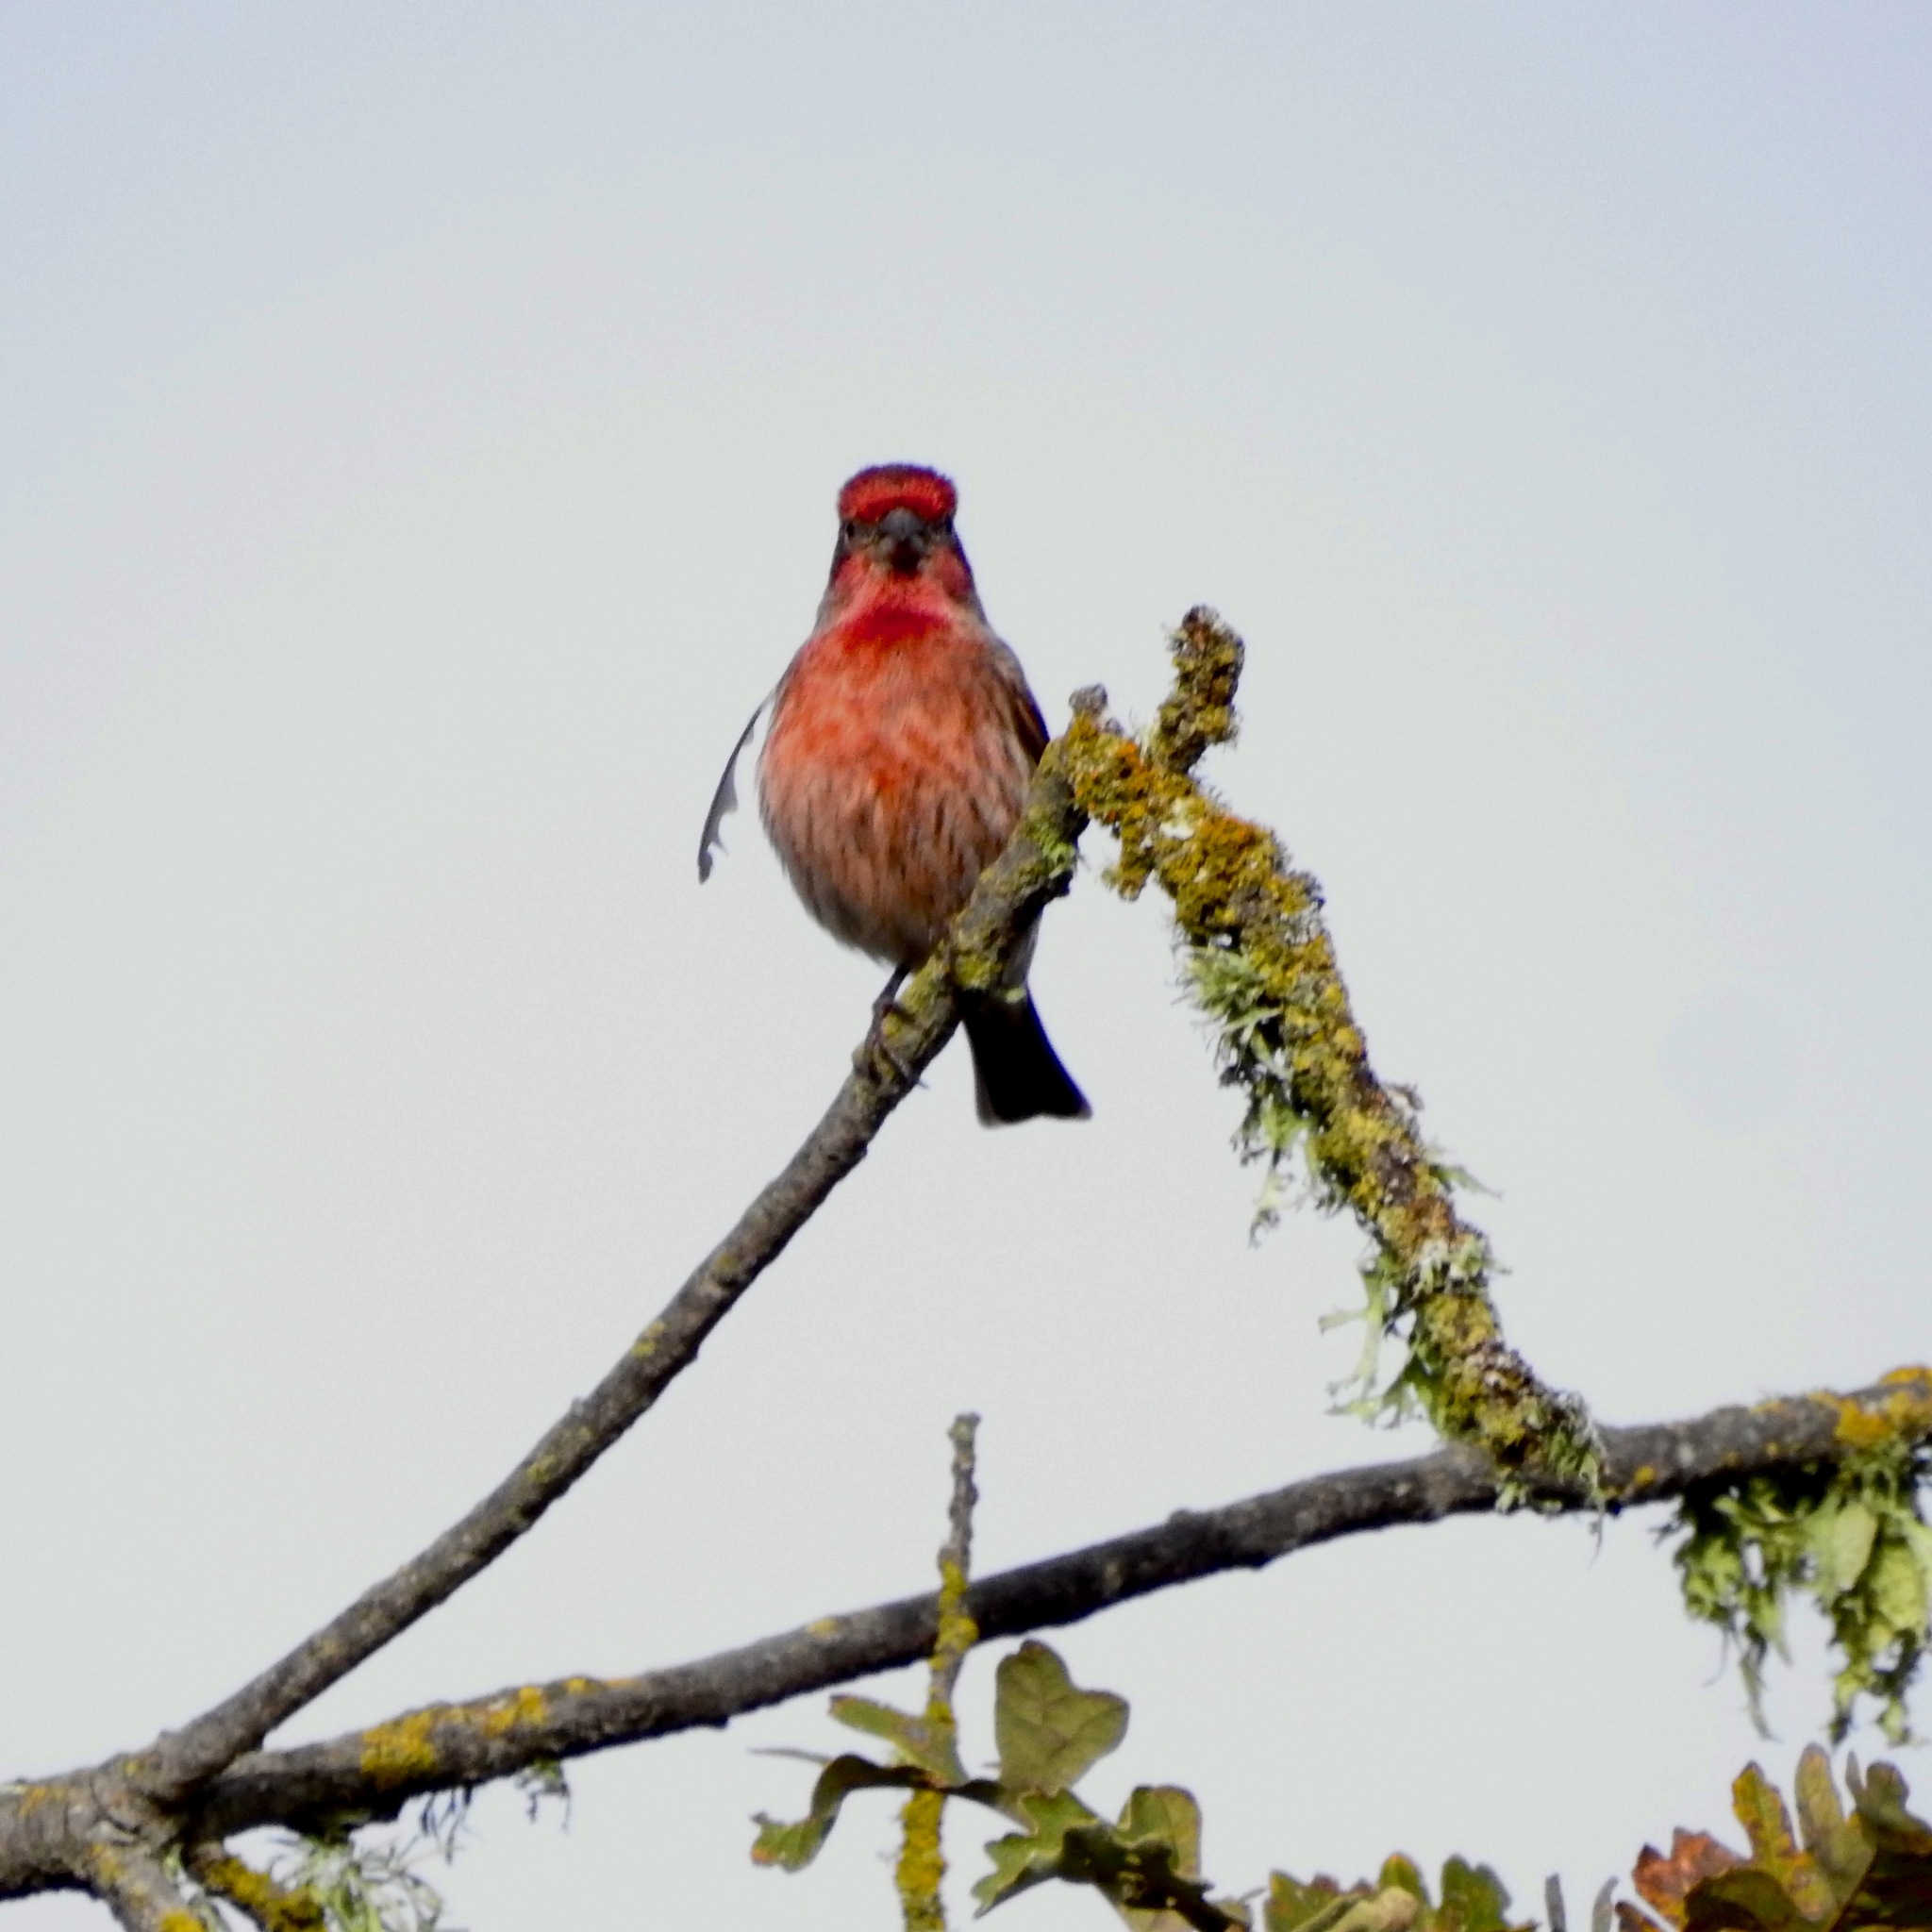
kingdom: Animalia
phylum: Chordata
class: Aves
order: Passeriformes
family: Fringillidae
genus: Haemorhous
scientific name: Haemorhous mexicanus
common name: House finch
